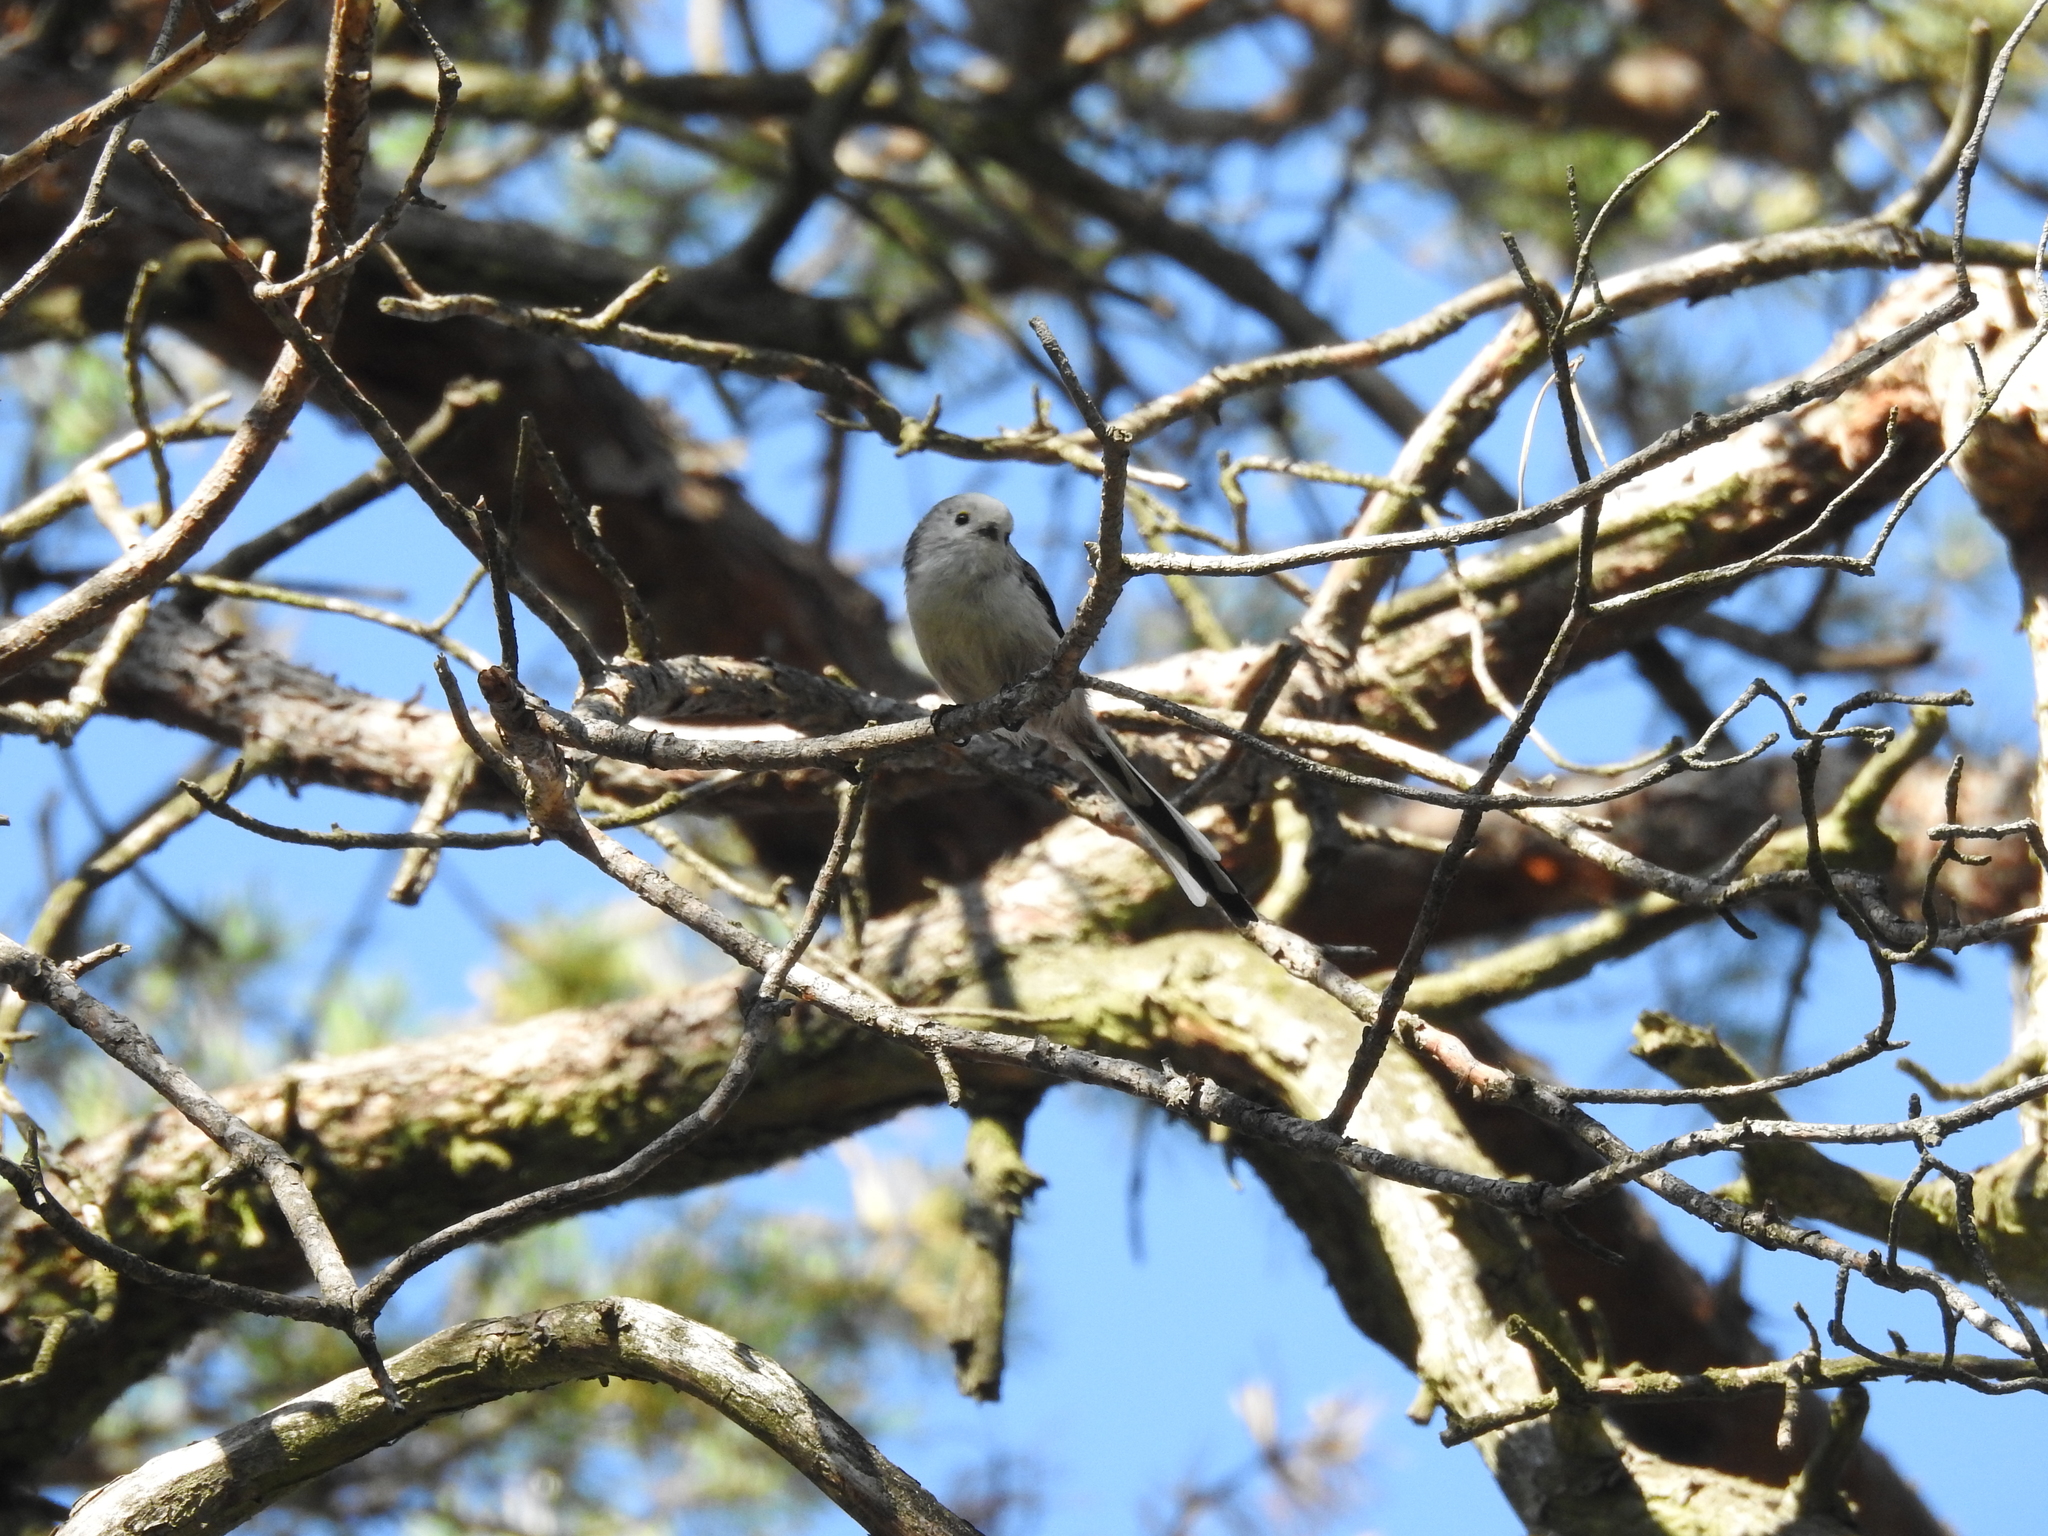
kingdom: Animalia
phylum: Chordata
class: Aves
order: Passeriformes
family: Aegithalidae
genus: Aegithalos
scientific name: Aegithalos caudatus
